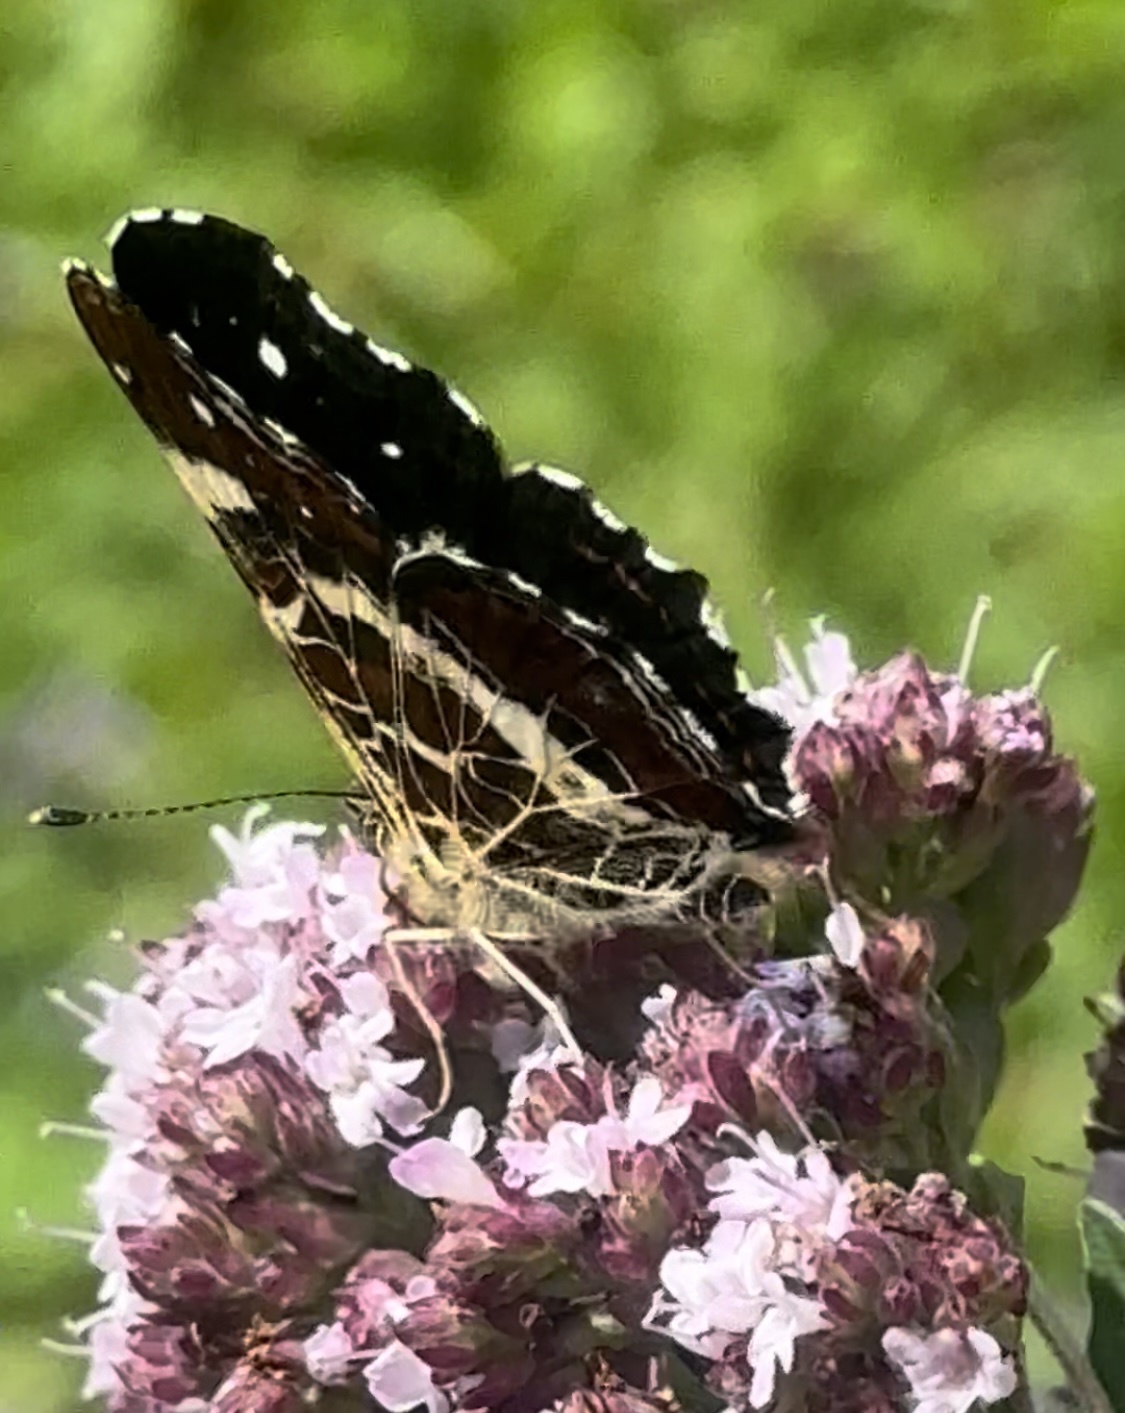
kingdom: Animalia
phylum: Arthropoda
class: Insecta
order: Lepidoptera
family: Nymphalidae
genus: Araschnia
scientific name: Araschnia levana
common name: Map butterfly
